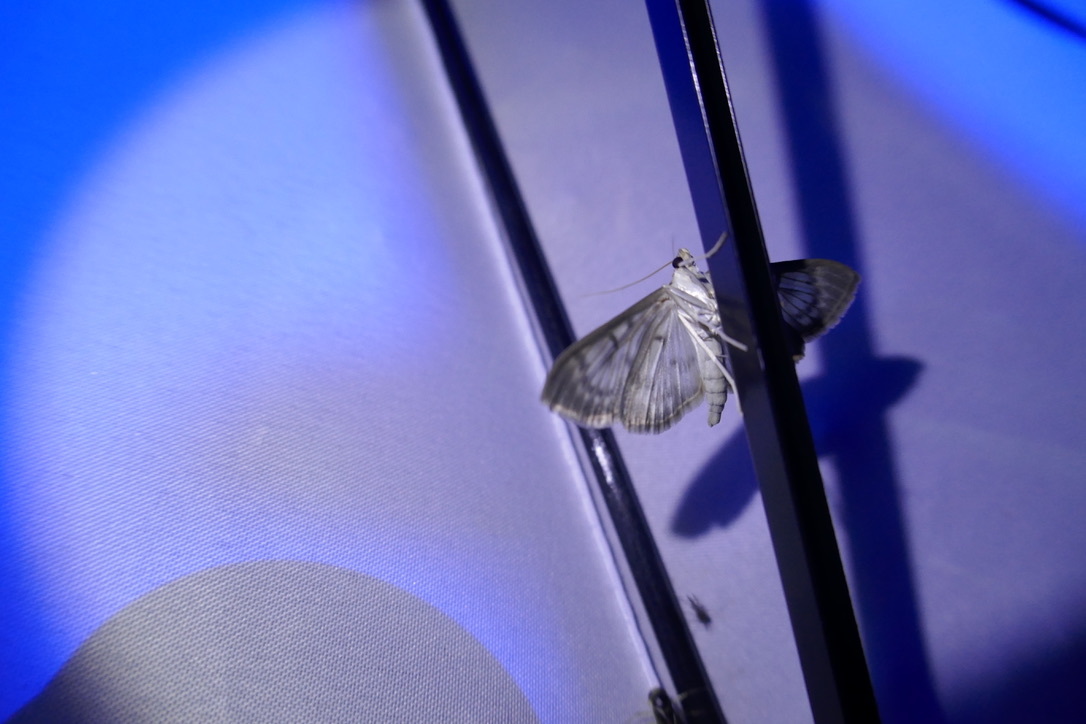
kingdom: Animalia
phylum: Arthropoda
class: Insecta
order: Lepidoptera
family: Crambidae
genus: Patania
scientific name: Patania ruralis
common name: Mother of pearl
